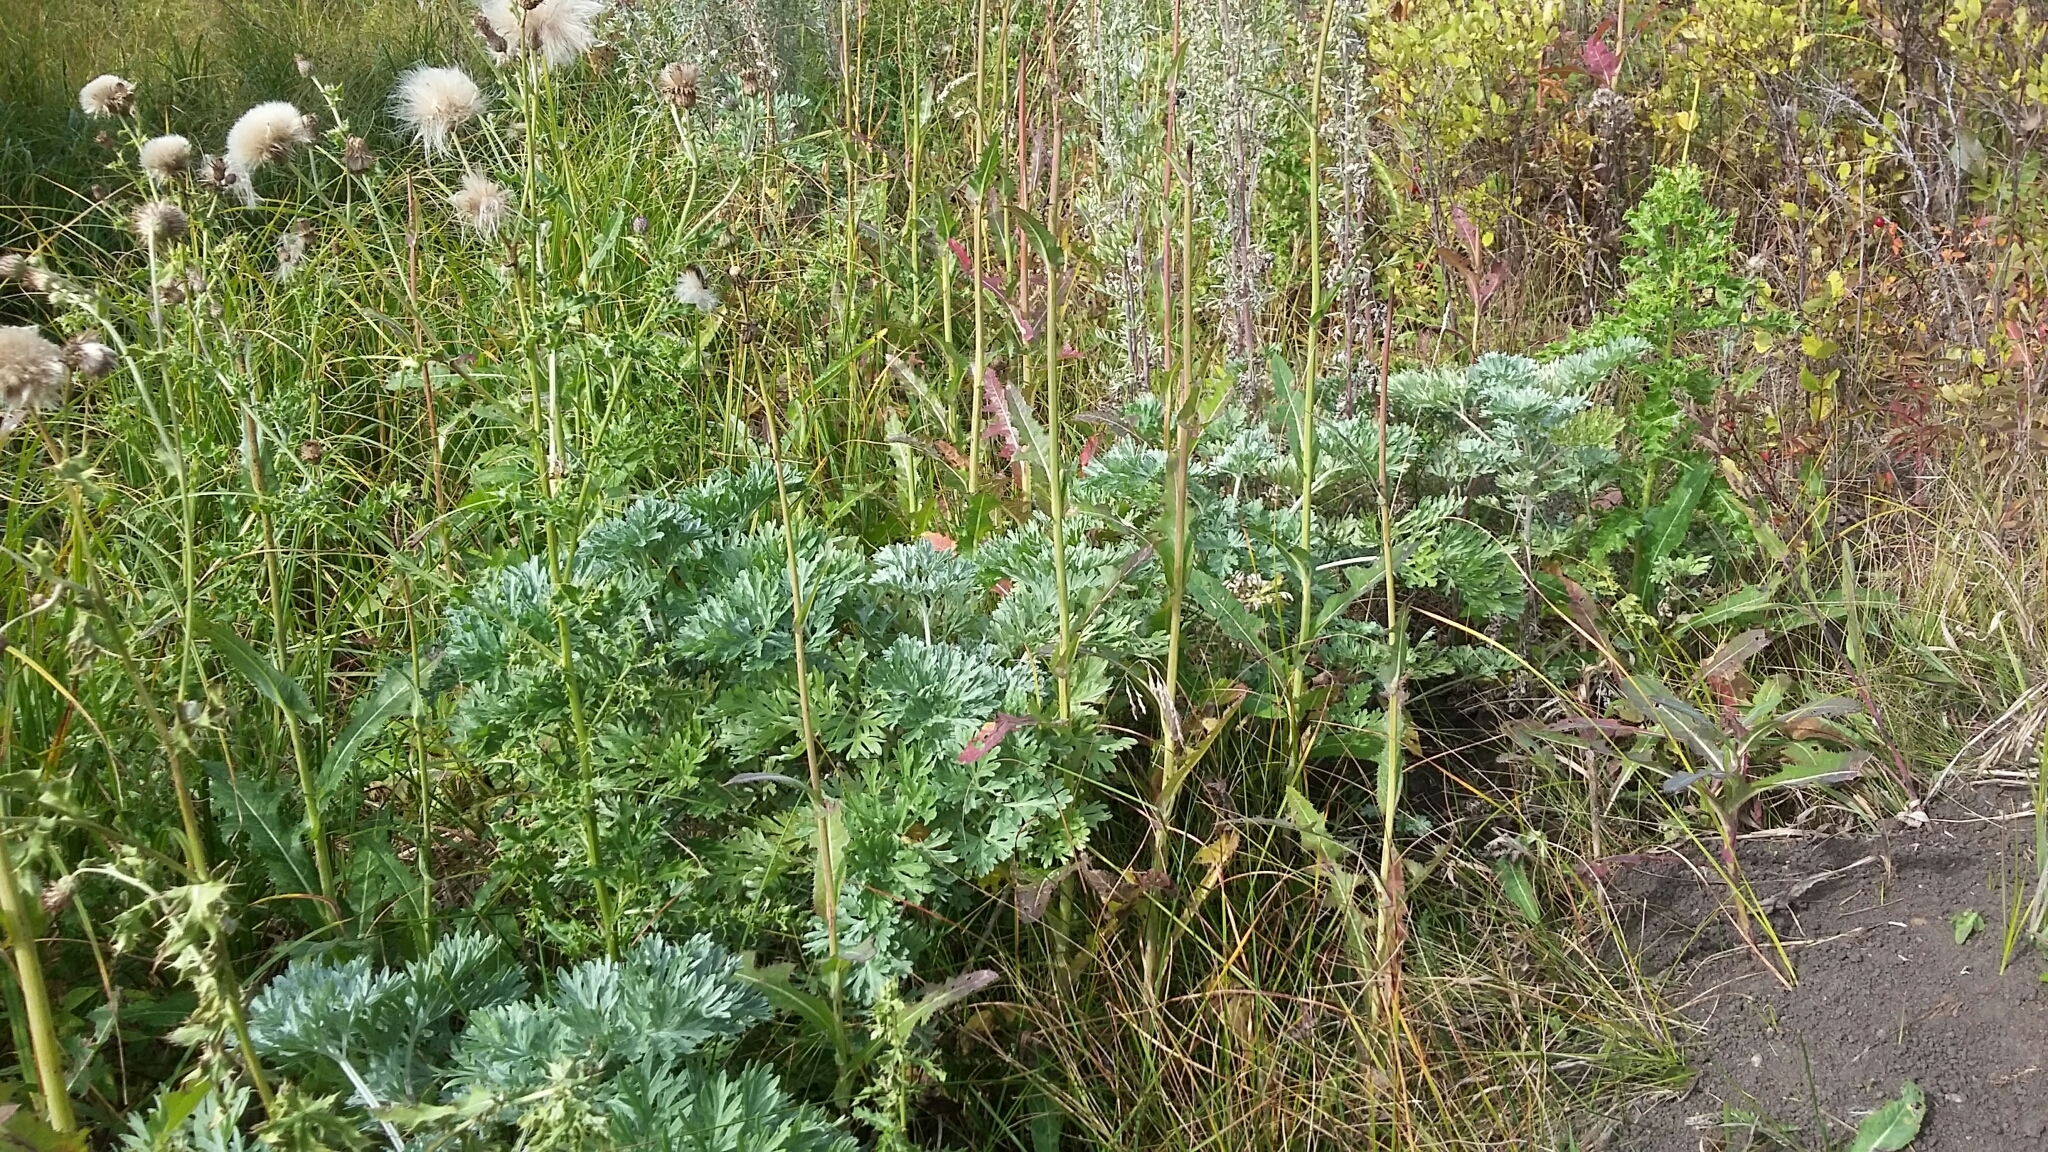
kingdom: Plantae
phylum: Tracheophyta
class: Magnoliopsida
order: Asterales
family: Asteraceae
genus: Artemisia
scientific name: Artemisia absinthium
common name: Wormwood
